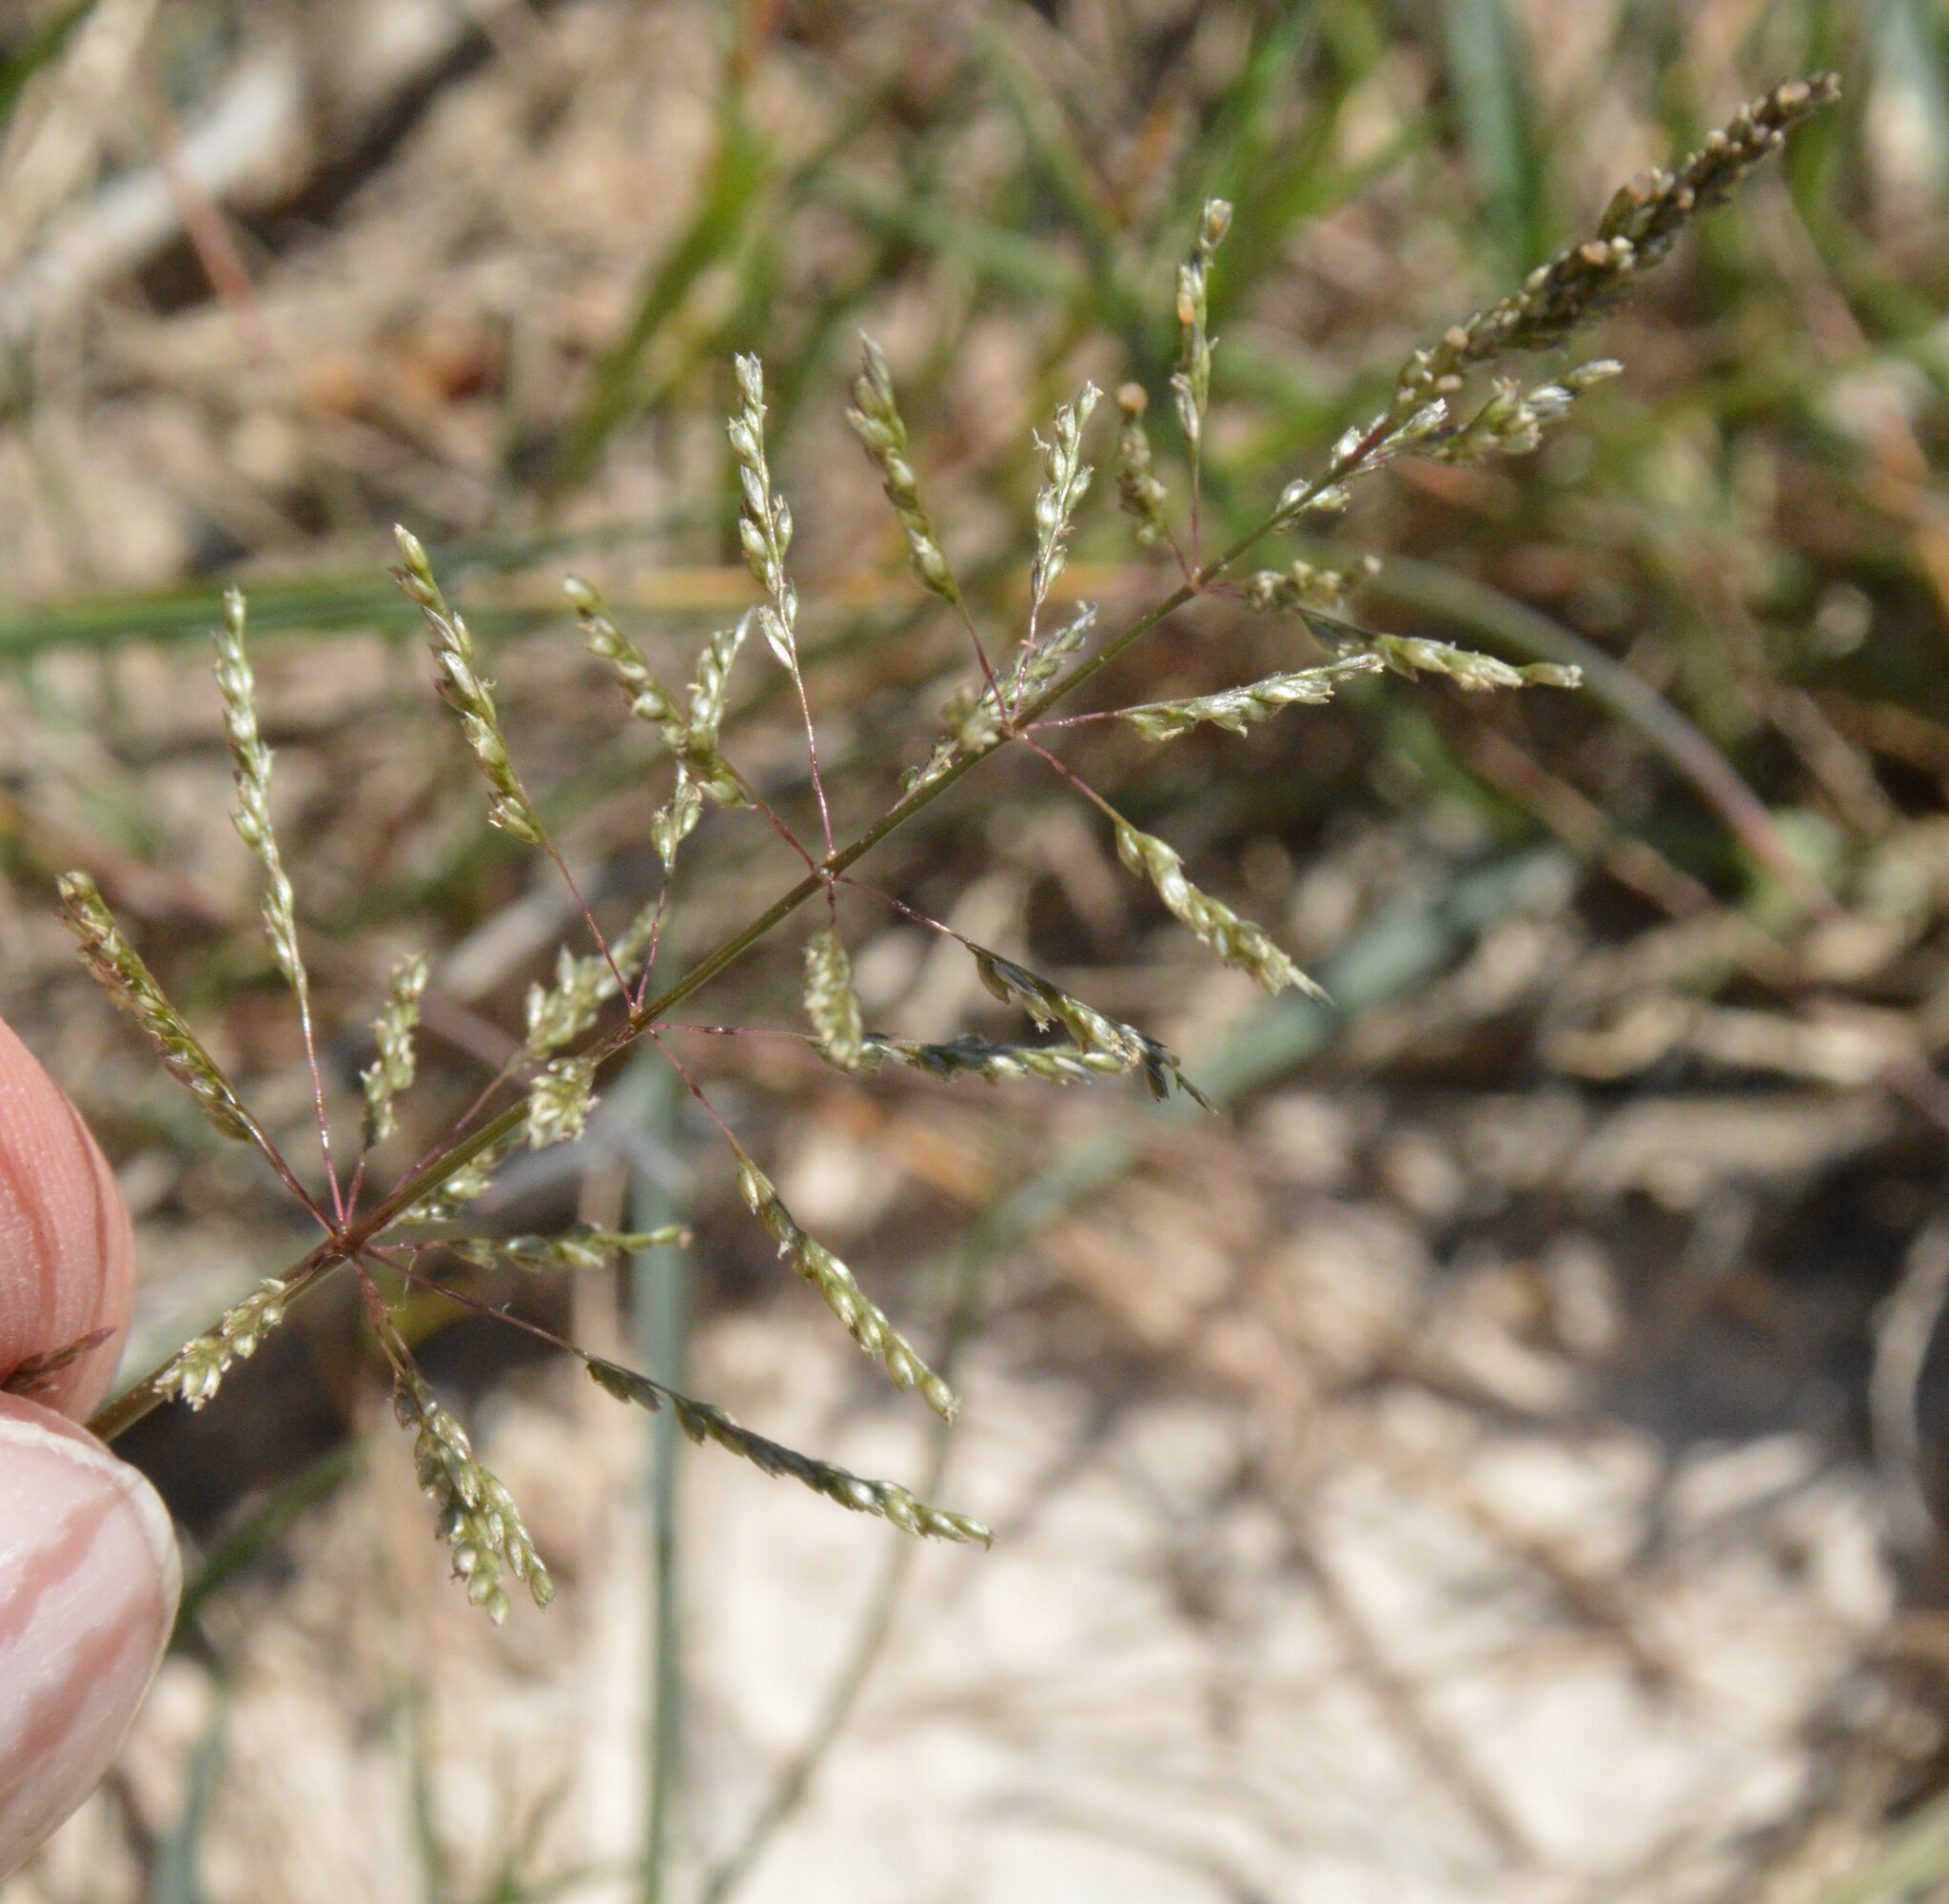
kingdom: Plantae
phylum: Tracheophyta
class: Liliopsida
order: Poales
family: Poaceae
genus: Sporobolus
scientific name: Sporobolus pyramidatus
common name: Whorled dropseed
